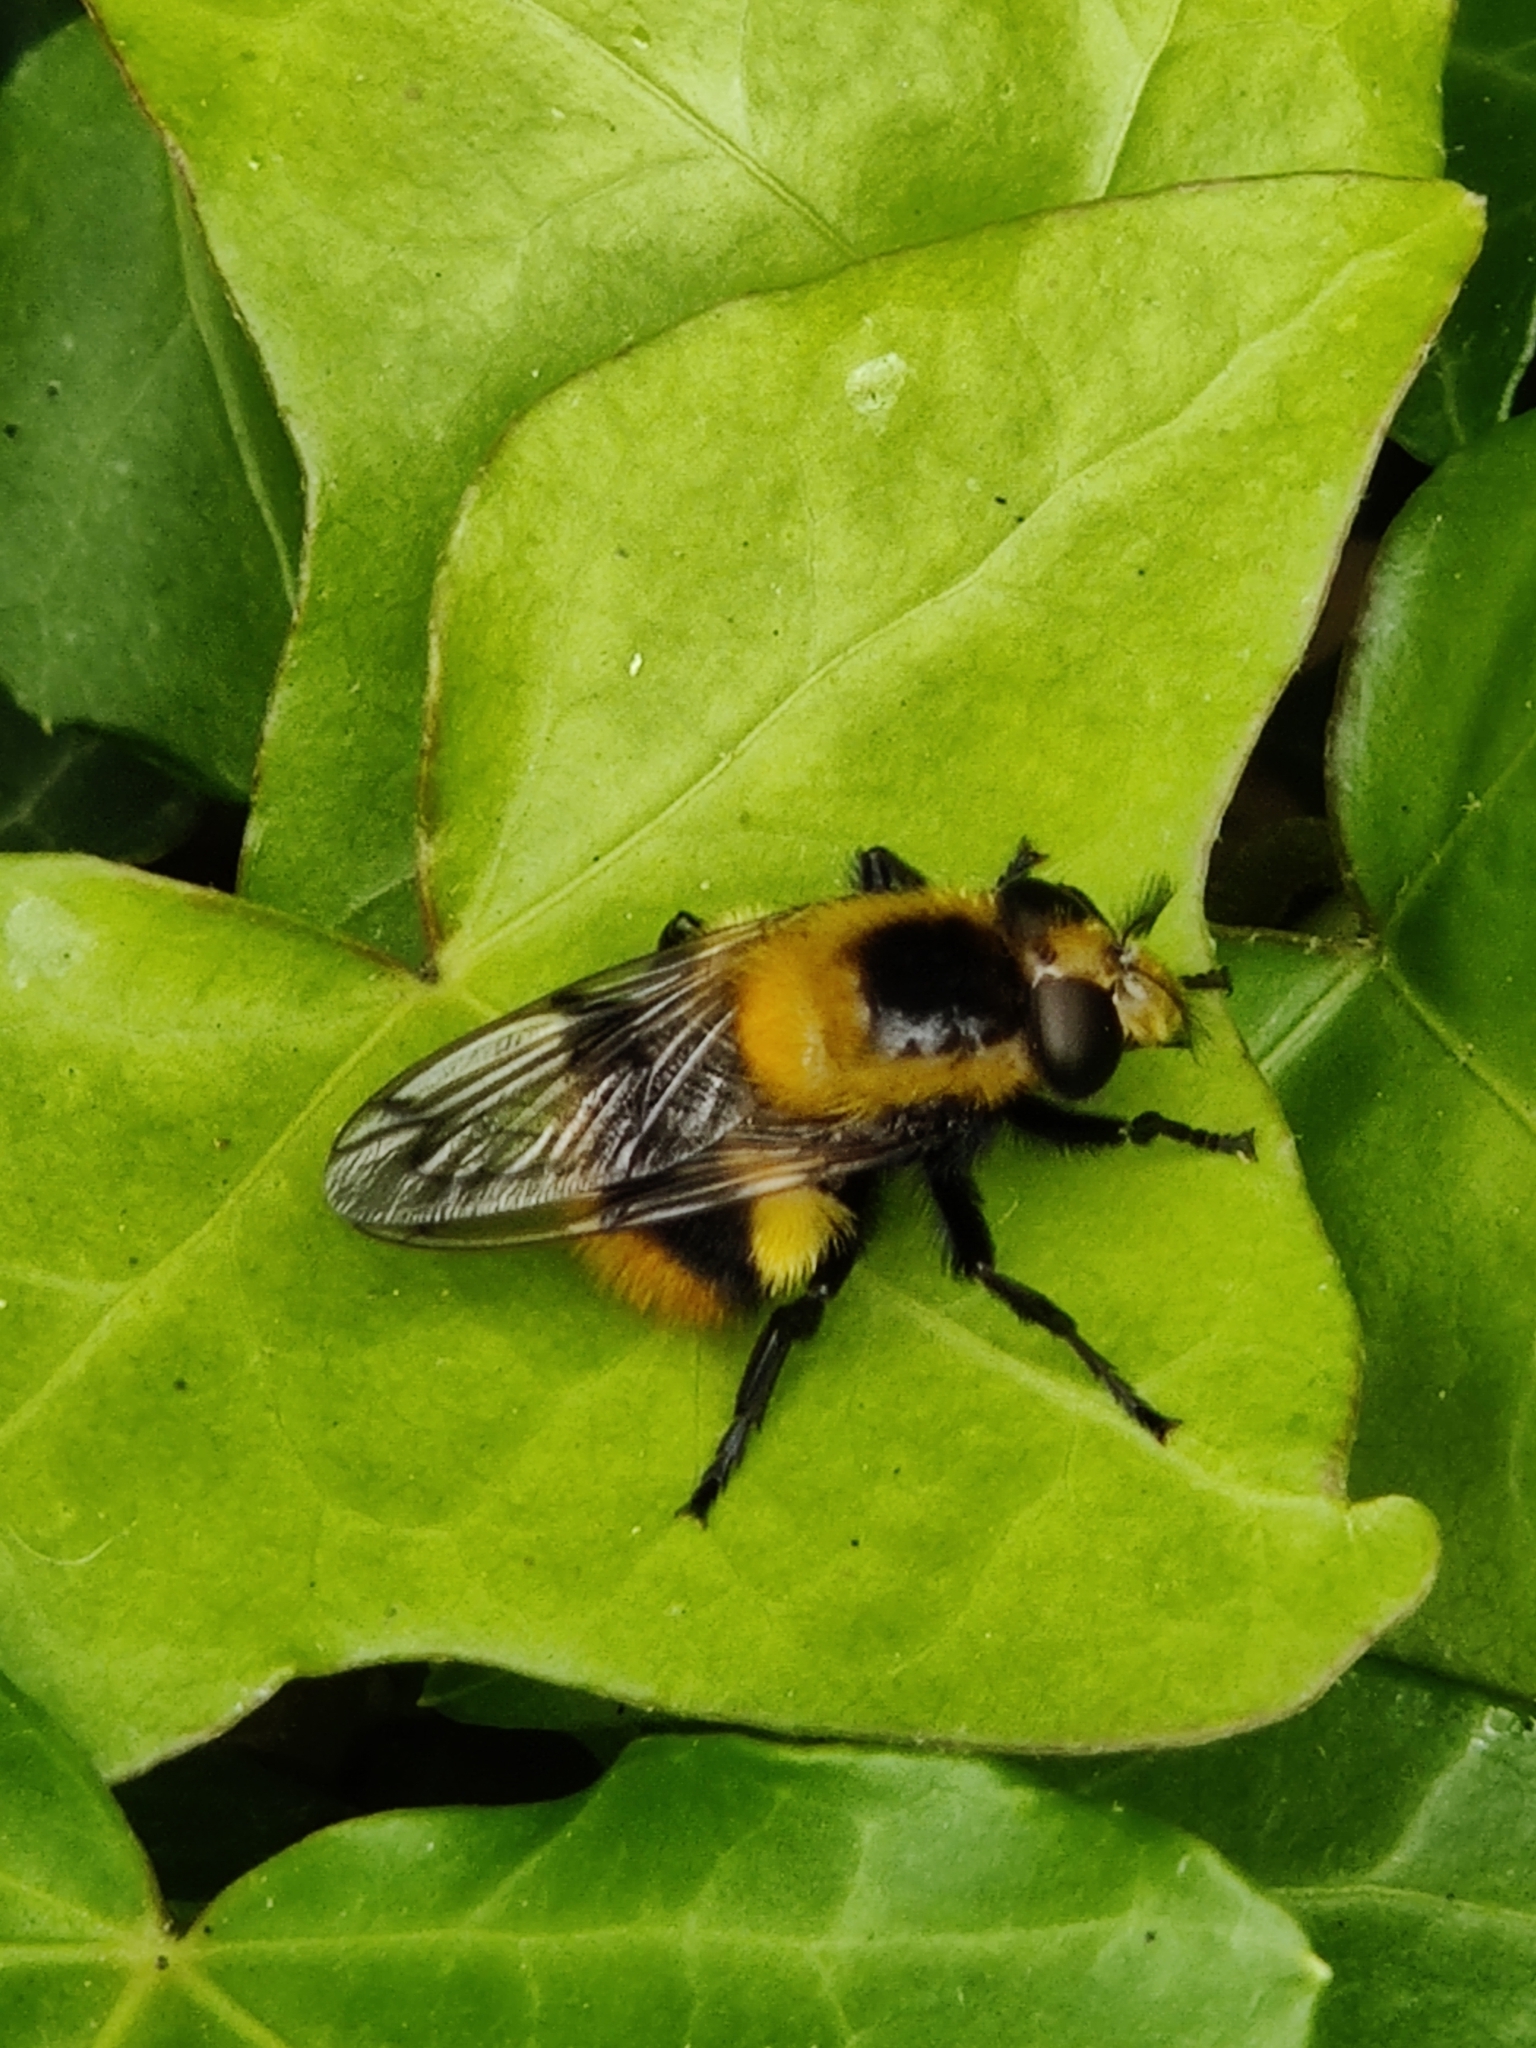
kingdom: Animalia
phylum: Arthropoda
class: Insecta
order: Diptera
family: Syrphidae
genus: Volucella
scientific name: Volucella bombylans
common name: Bumble bee hover fly
